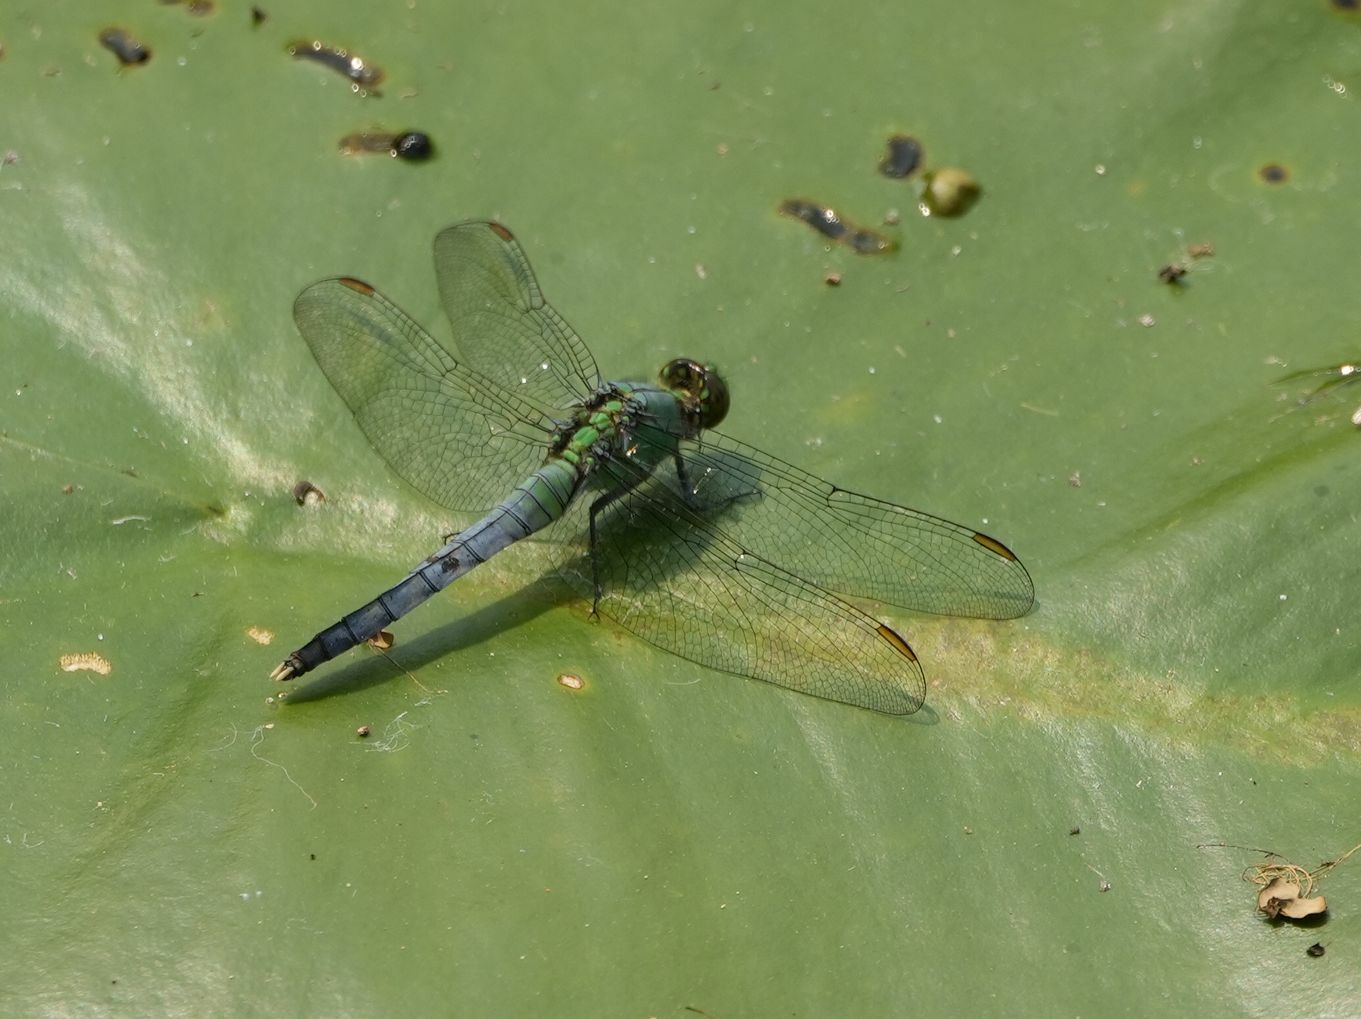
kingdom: Animalia
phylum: Arthropoda
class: Insecta
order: Odonata
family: Libellulidae
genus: Erythemis
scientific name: Erythemis simplicicollis
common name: Eastern pondhawk
